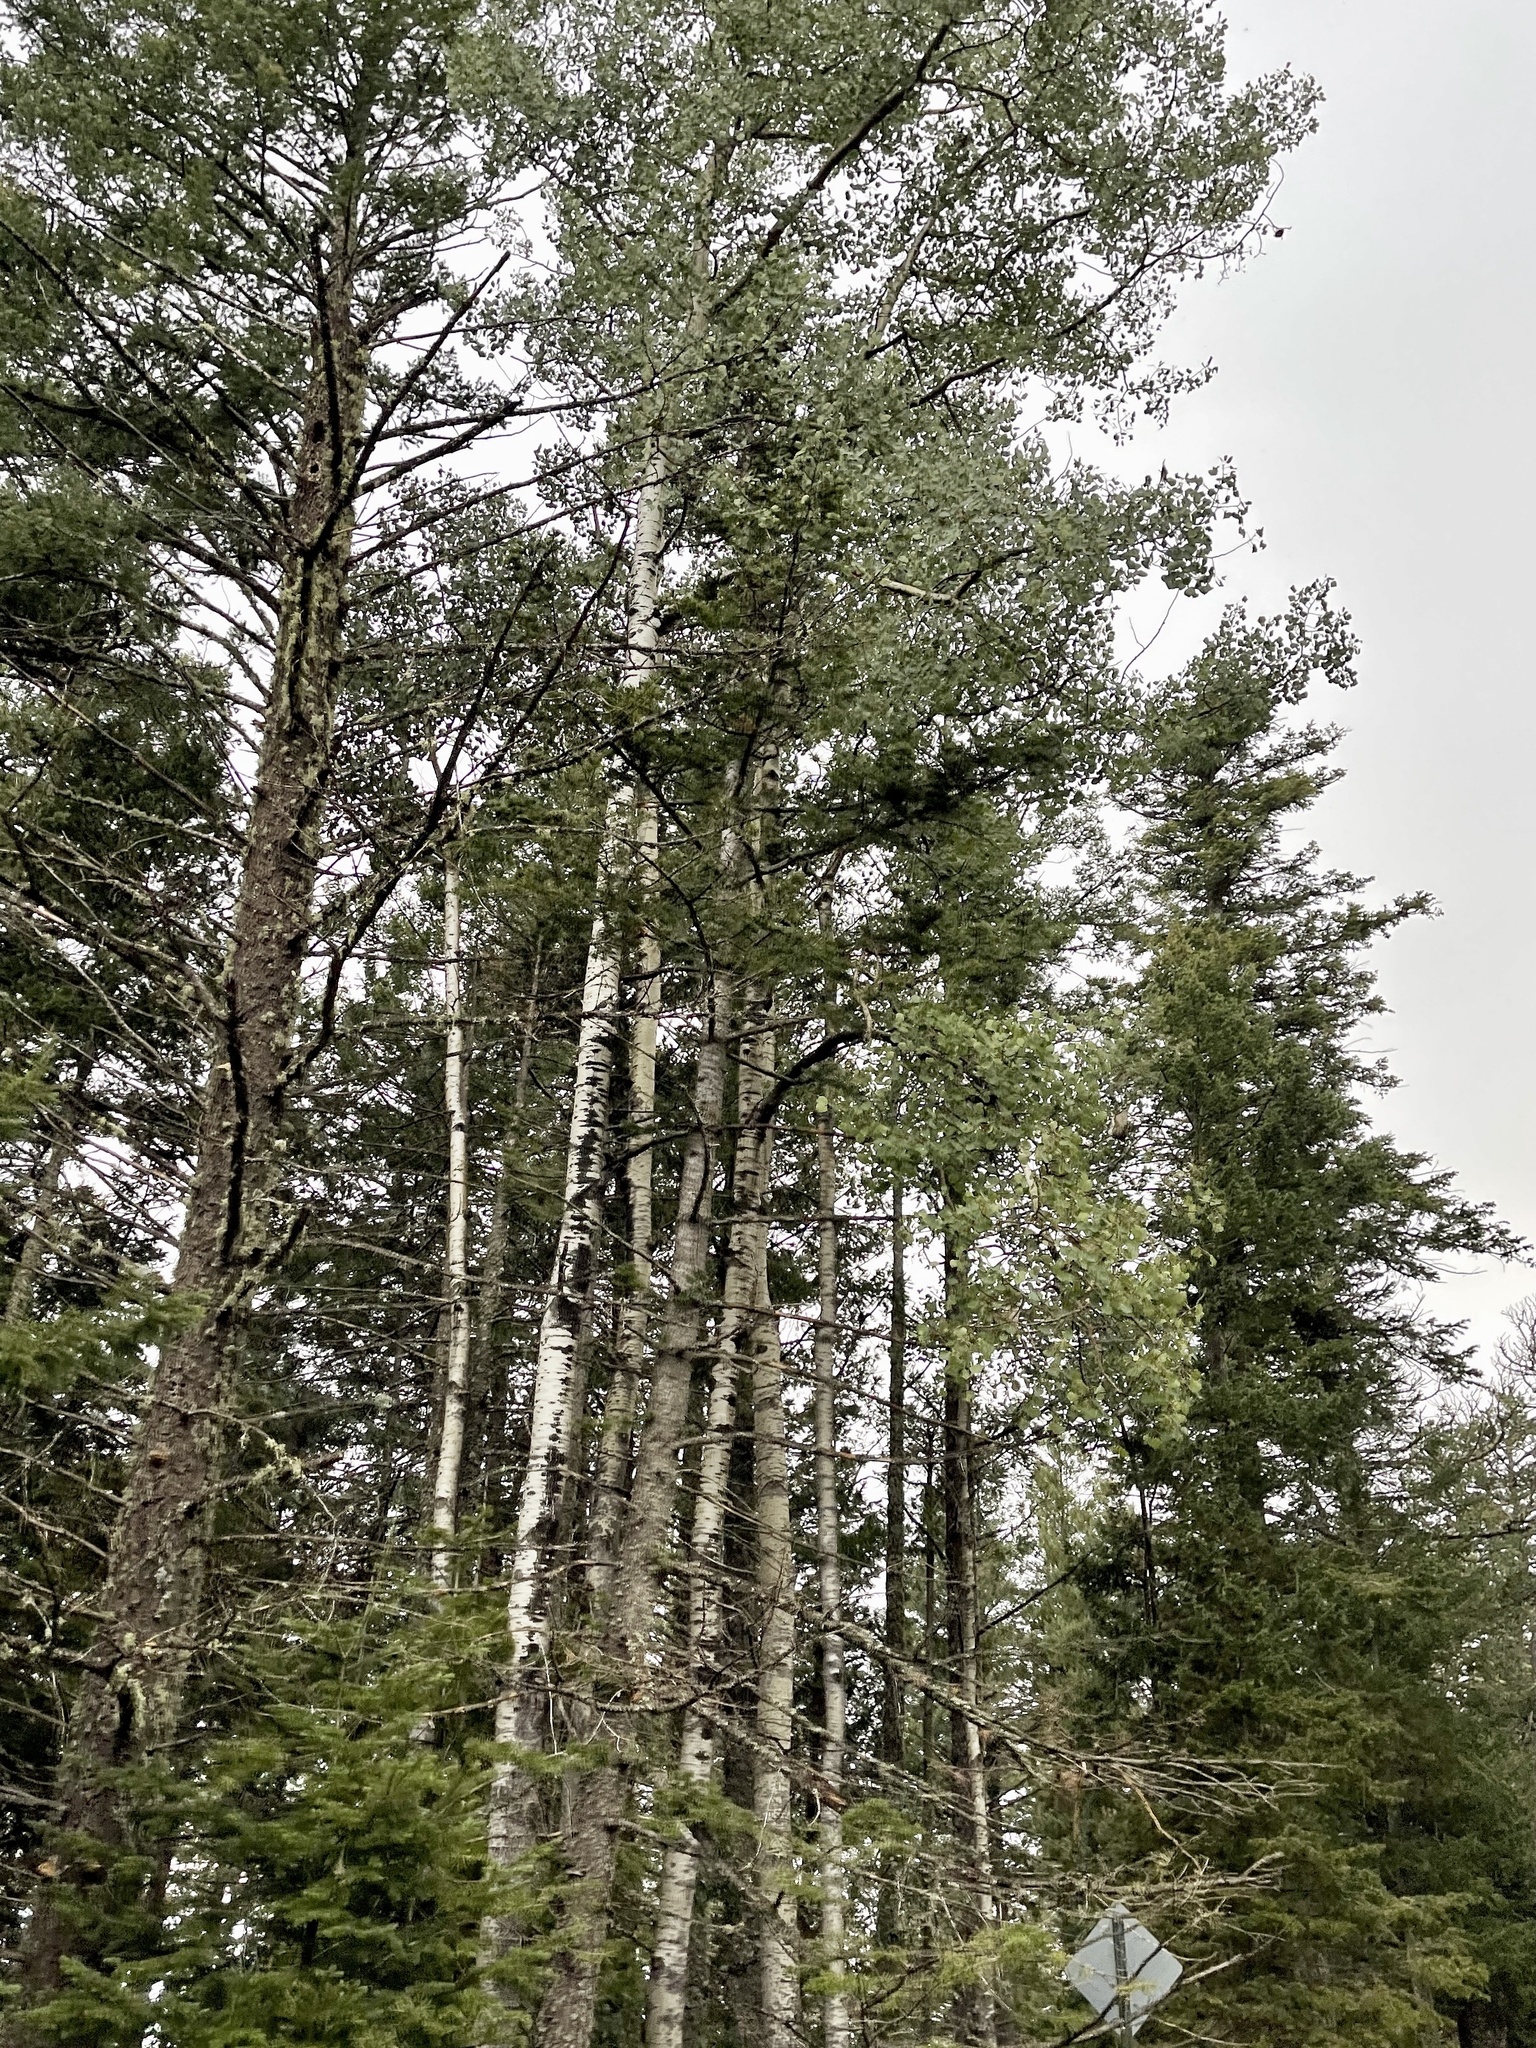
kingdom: Plantae
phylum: Tracheophyta
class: Magnoliopsida
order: Malpighiales
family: Salicaceae
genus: Populus
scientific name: Populus tremuloides
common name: Quaking aspen
